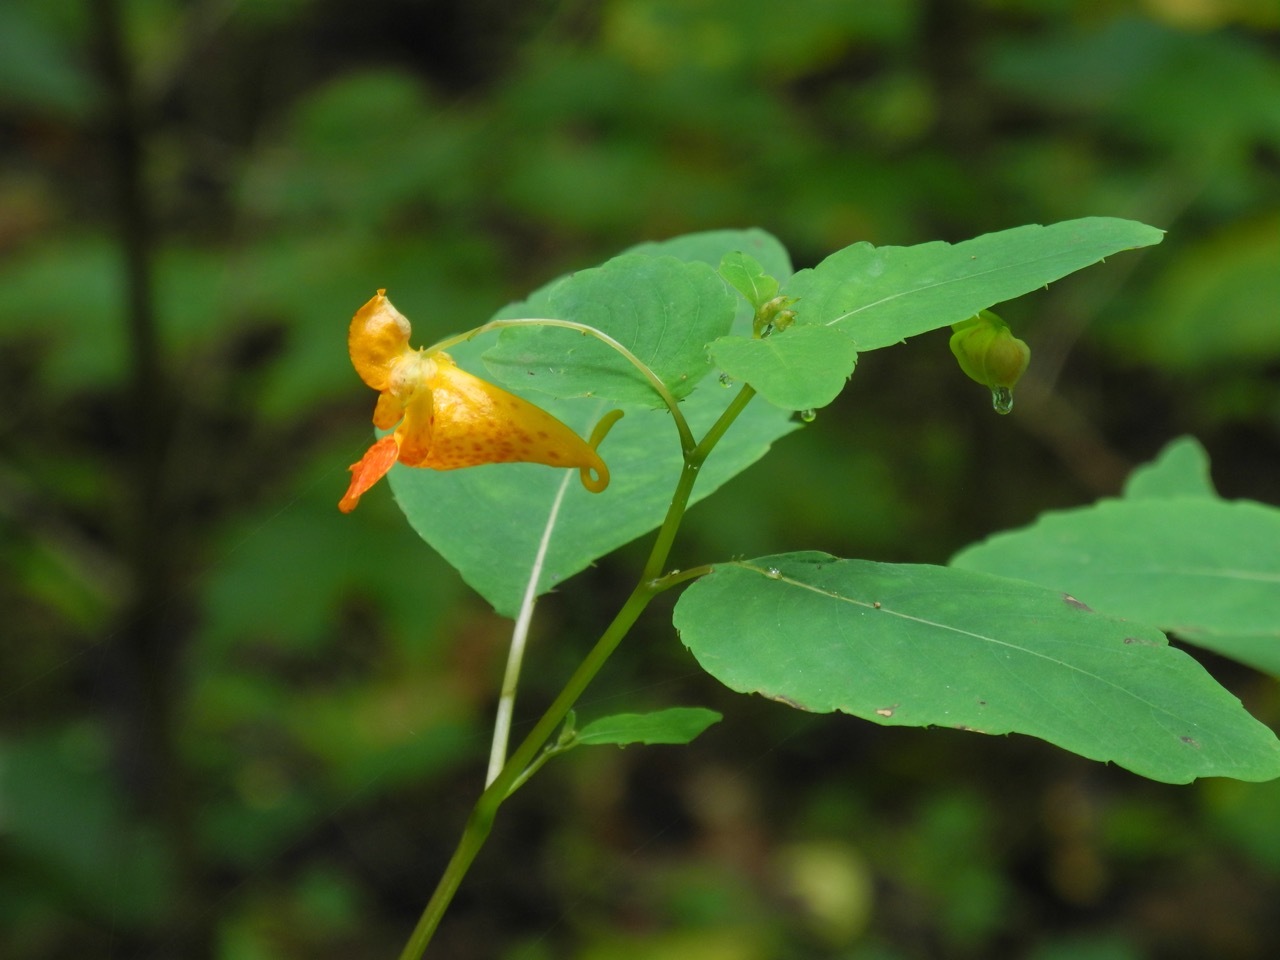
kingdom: Plantae
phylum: Tracheophyta
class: Magnoliopsida
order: Ericales
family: Balsaminaceae
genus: Impatiens
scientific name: Impatiens capensis
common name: Orange balsam
